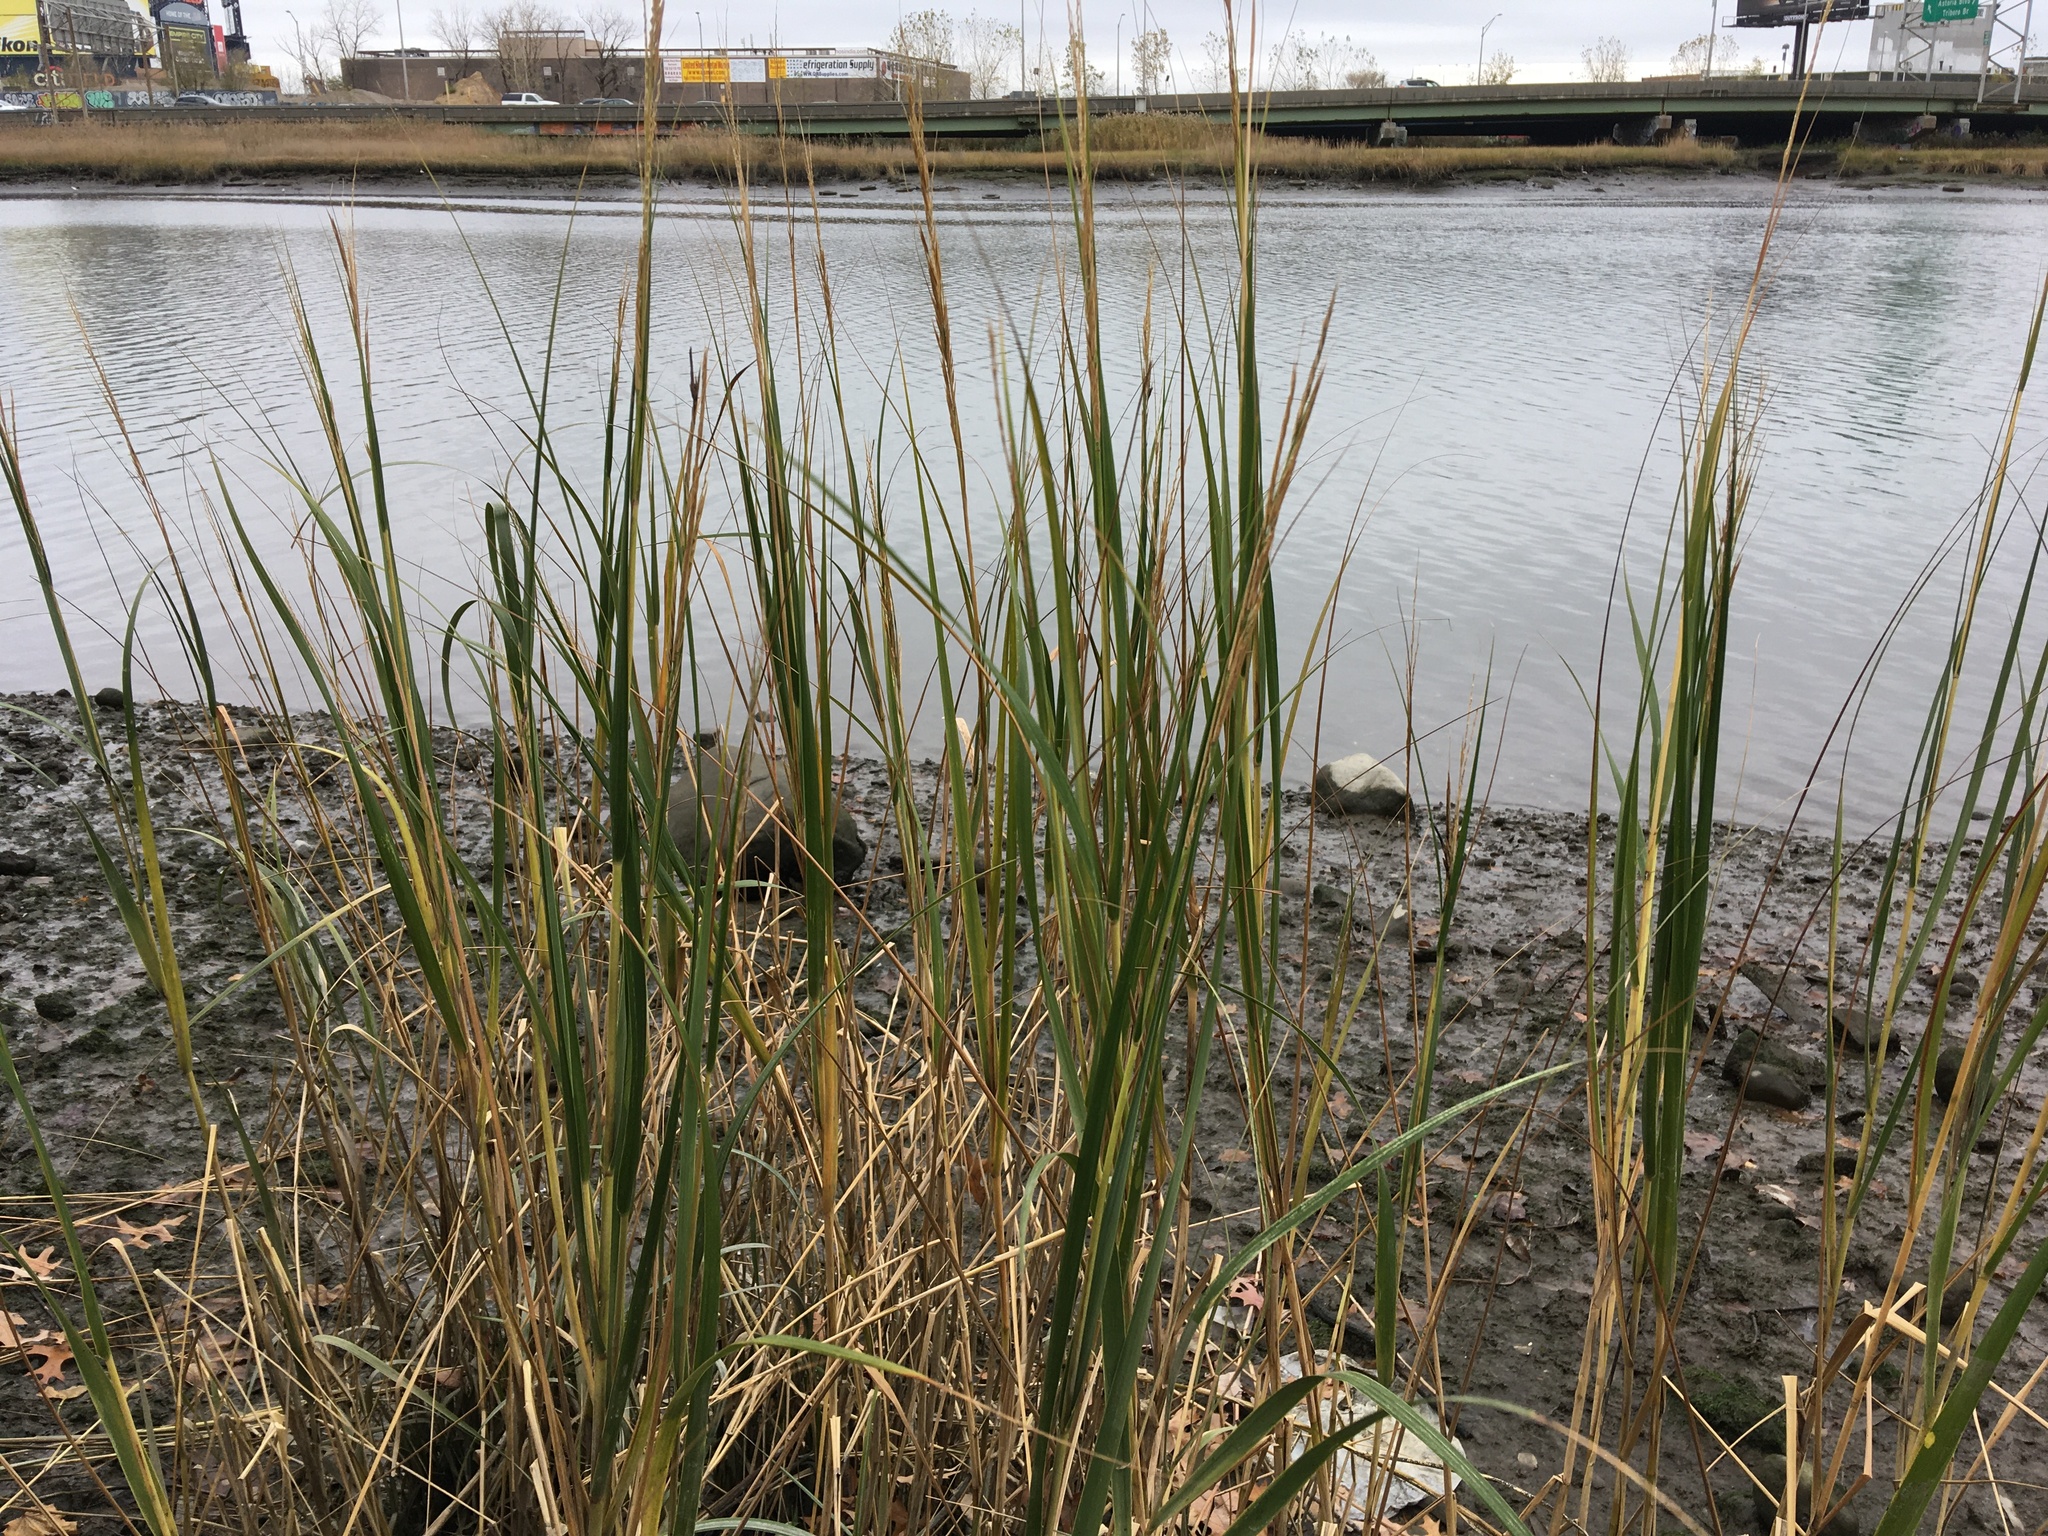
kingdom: Plantae
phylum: Tracheophyta
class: Liliopsida
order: Poales
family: Poaceae
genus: Sporobolus
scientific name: Sporobolus alterniflorus
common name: Atlantic cordgrass
